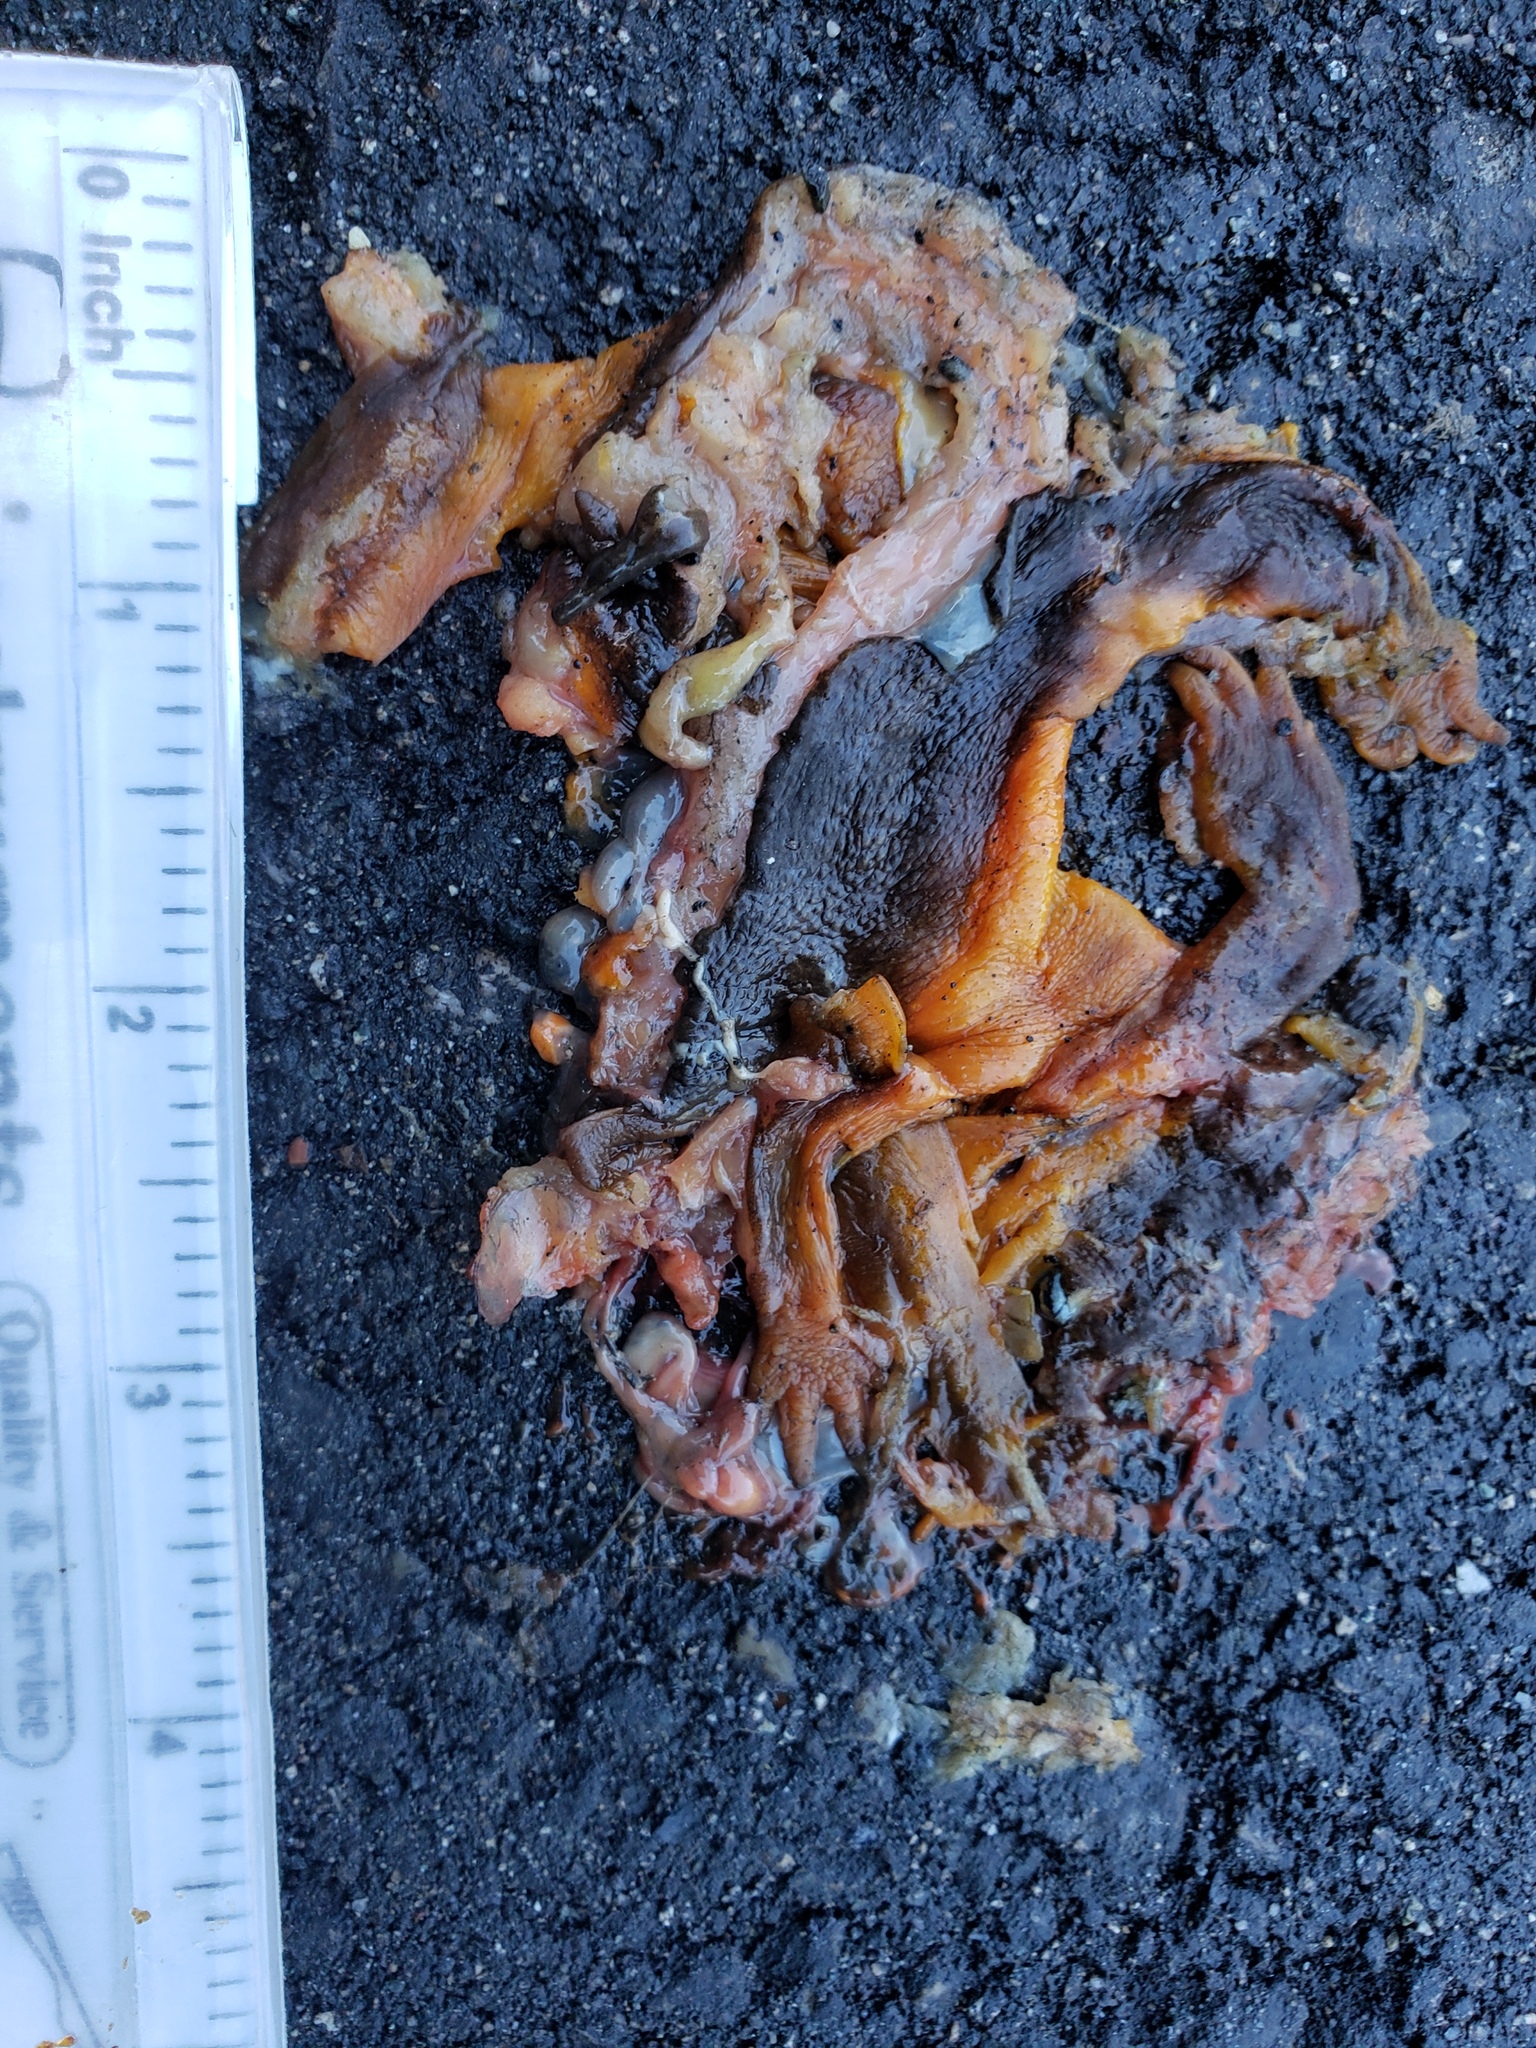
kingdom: Animalia
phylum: Chordata
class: Amphibia
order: Caudata
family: Salamandridae
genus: Taricha
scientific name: Taricha
